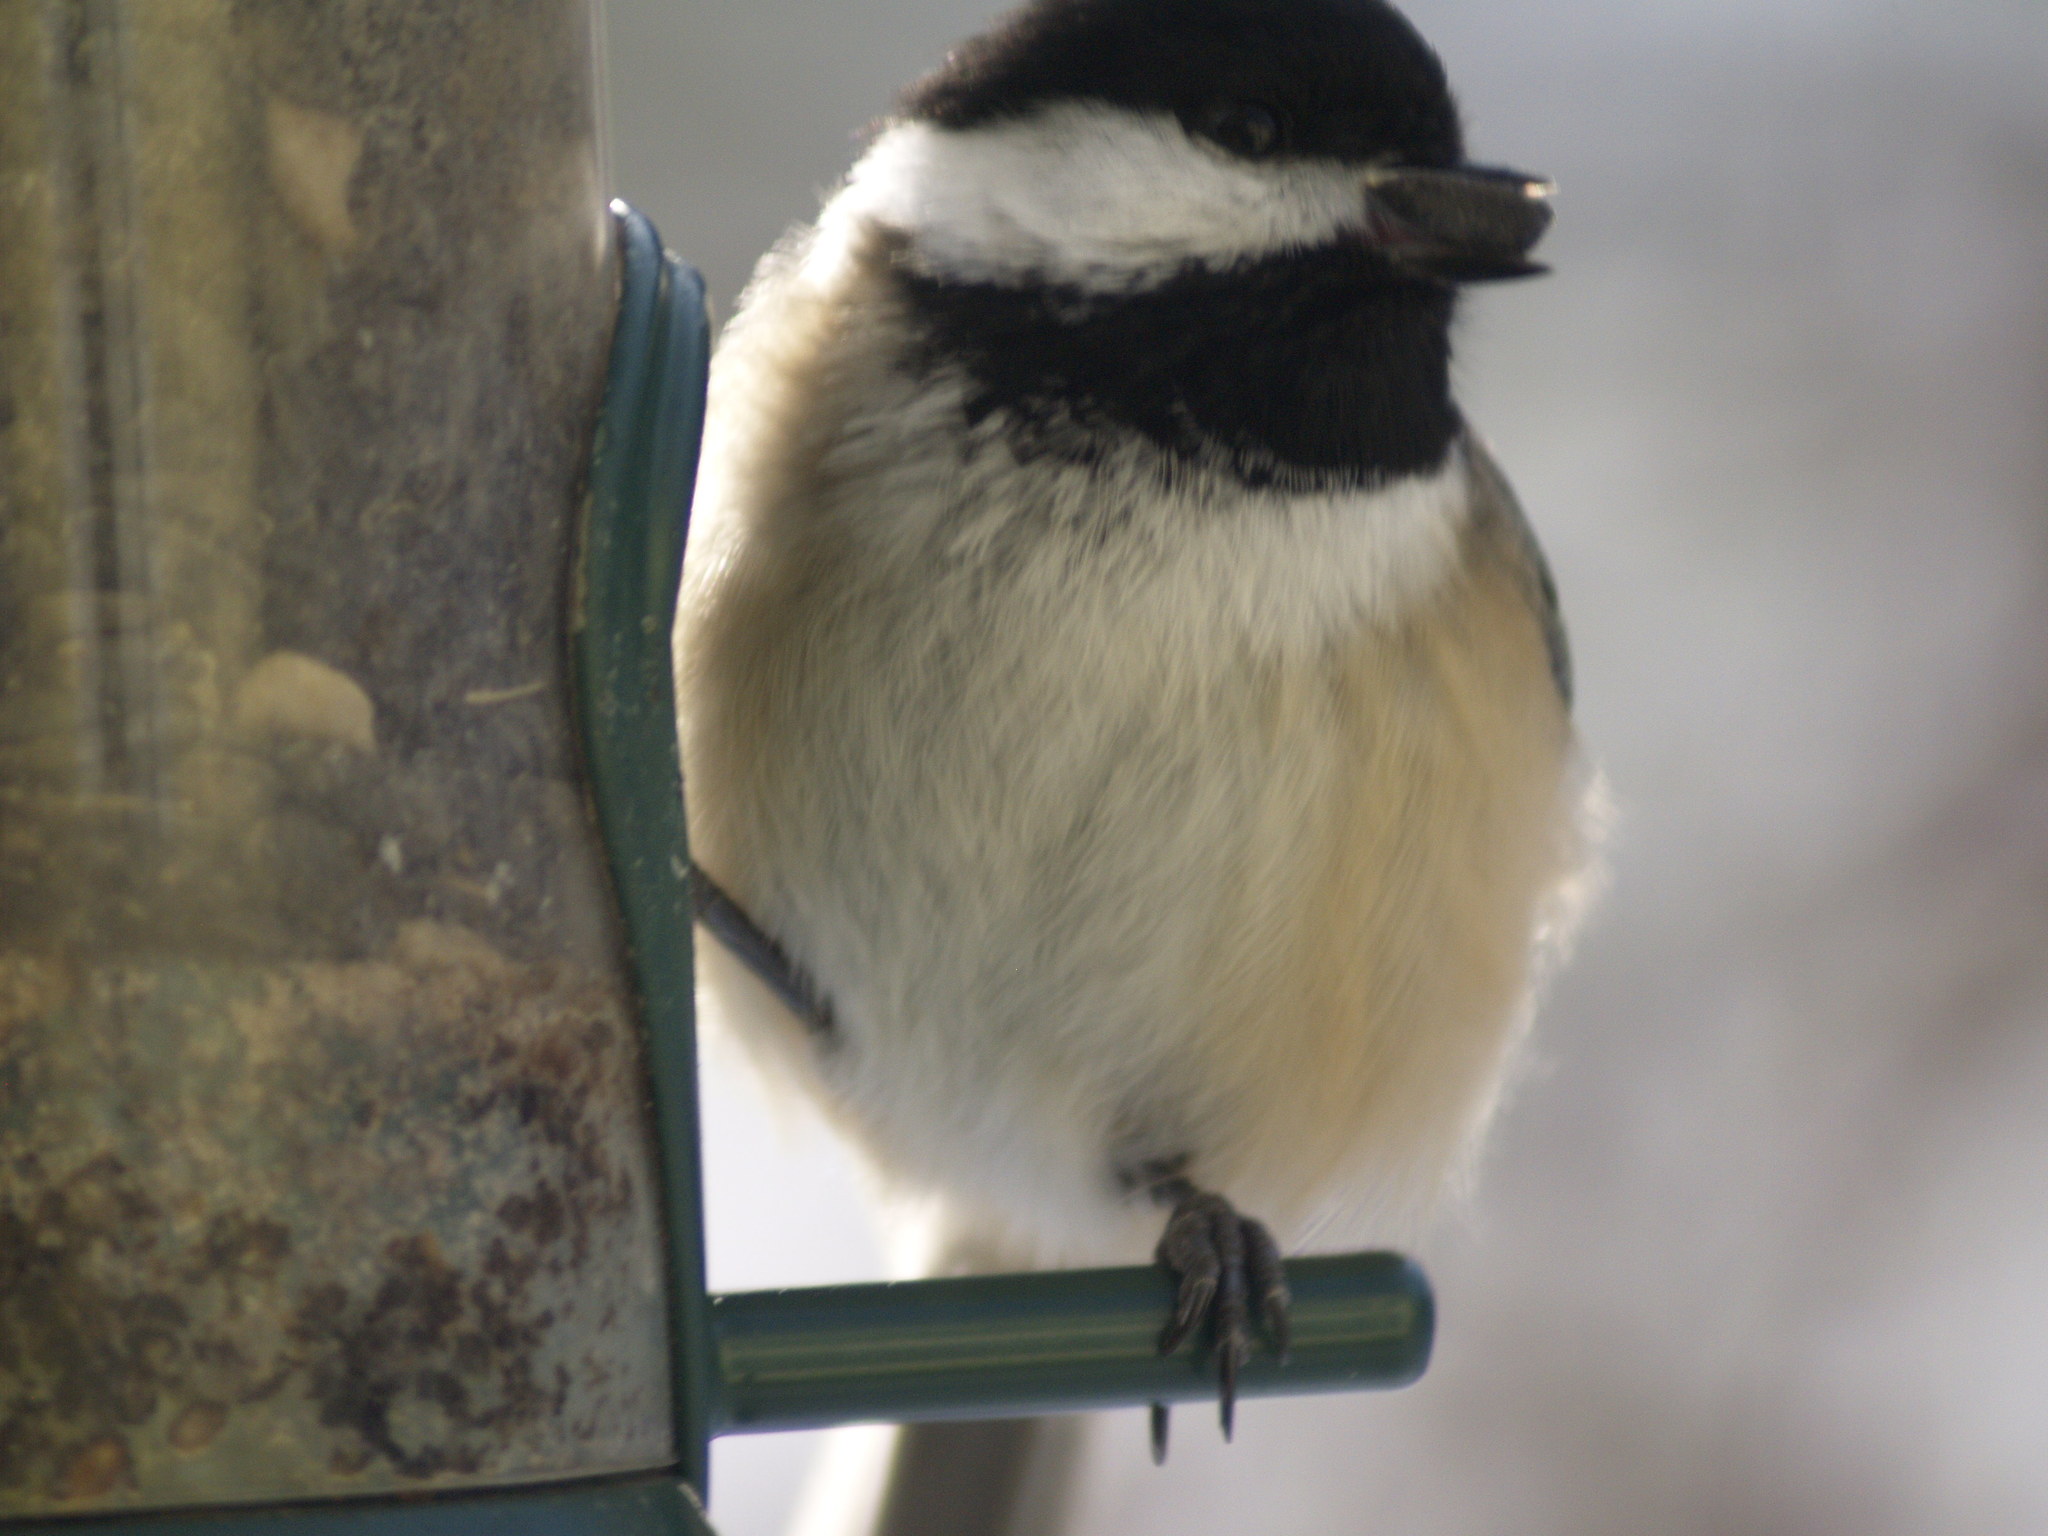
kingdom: Animalia
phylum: Chordata
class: Aves
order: Passeriformes
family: Paridae
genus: Poecile
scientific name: Poecile atricapillus
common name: Black-capped chickadee
